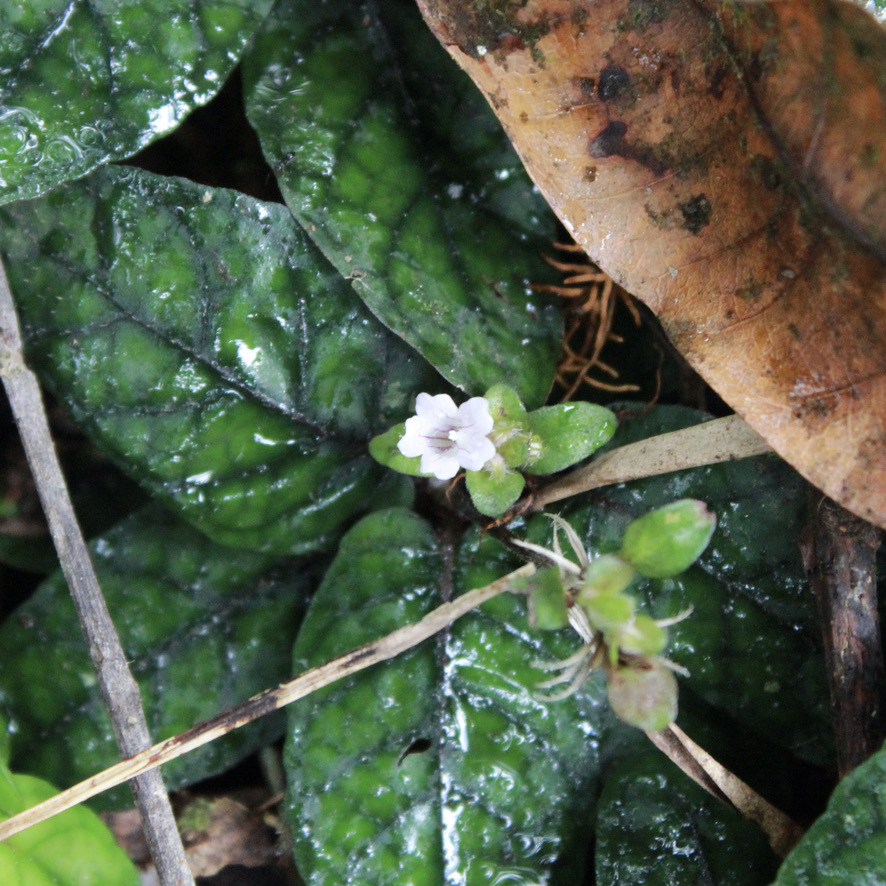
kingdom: Plantae
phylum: Tracheophyta
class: Magnoliopsida
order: Lamiales
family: Acanthaceae
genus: Strobilanthes
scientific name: Strobilanthes reptans
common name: Acanthaceae
